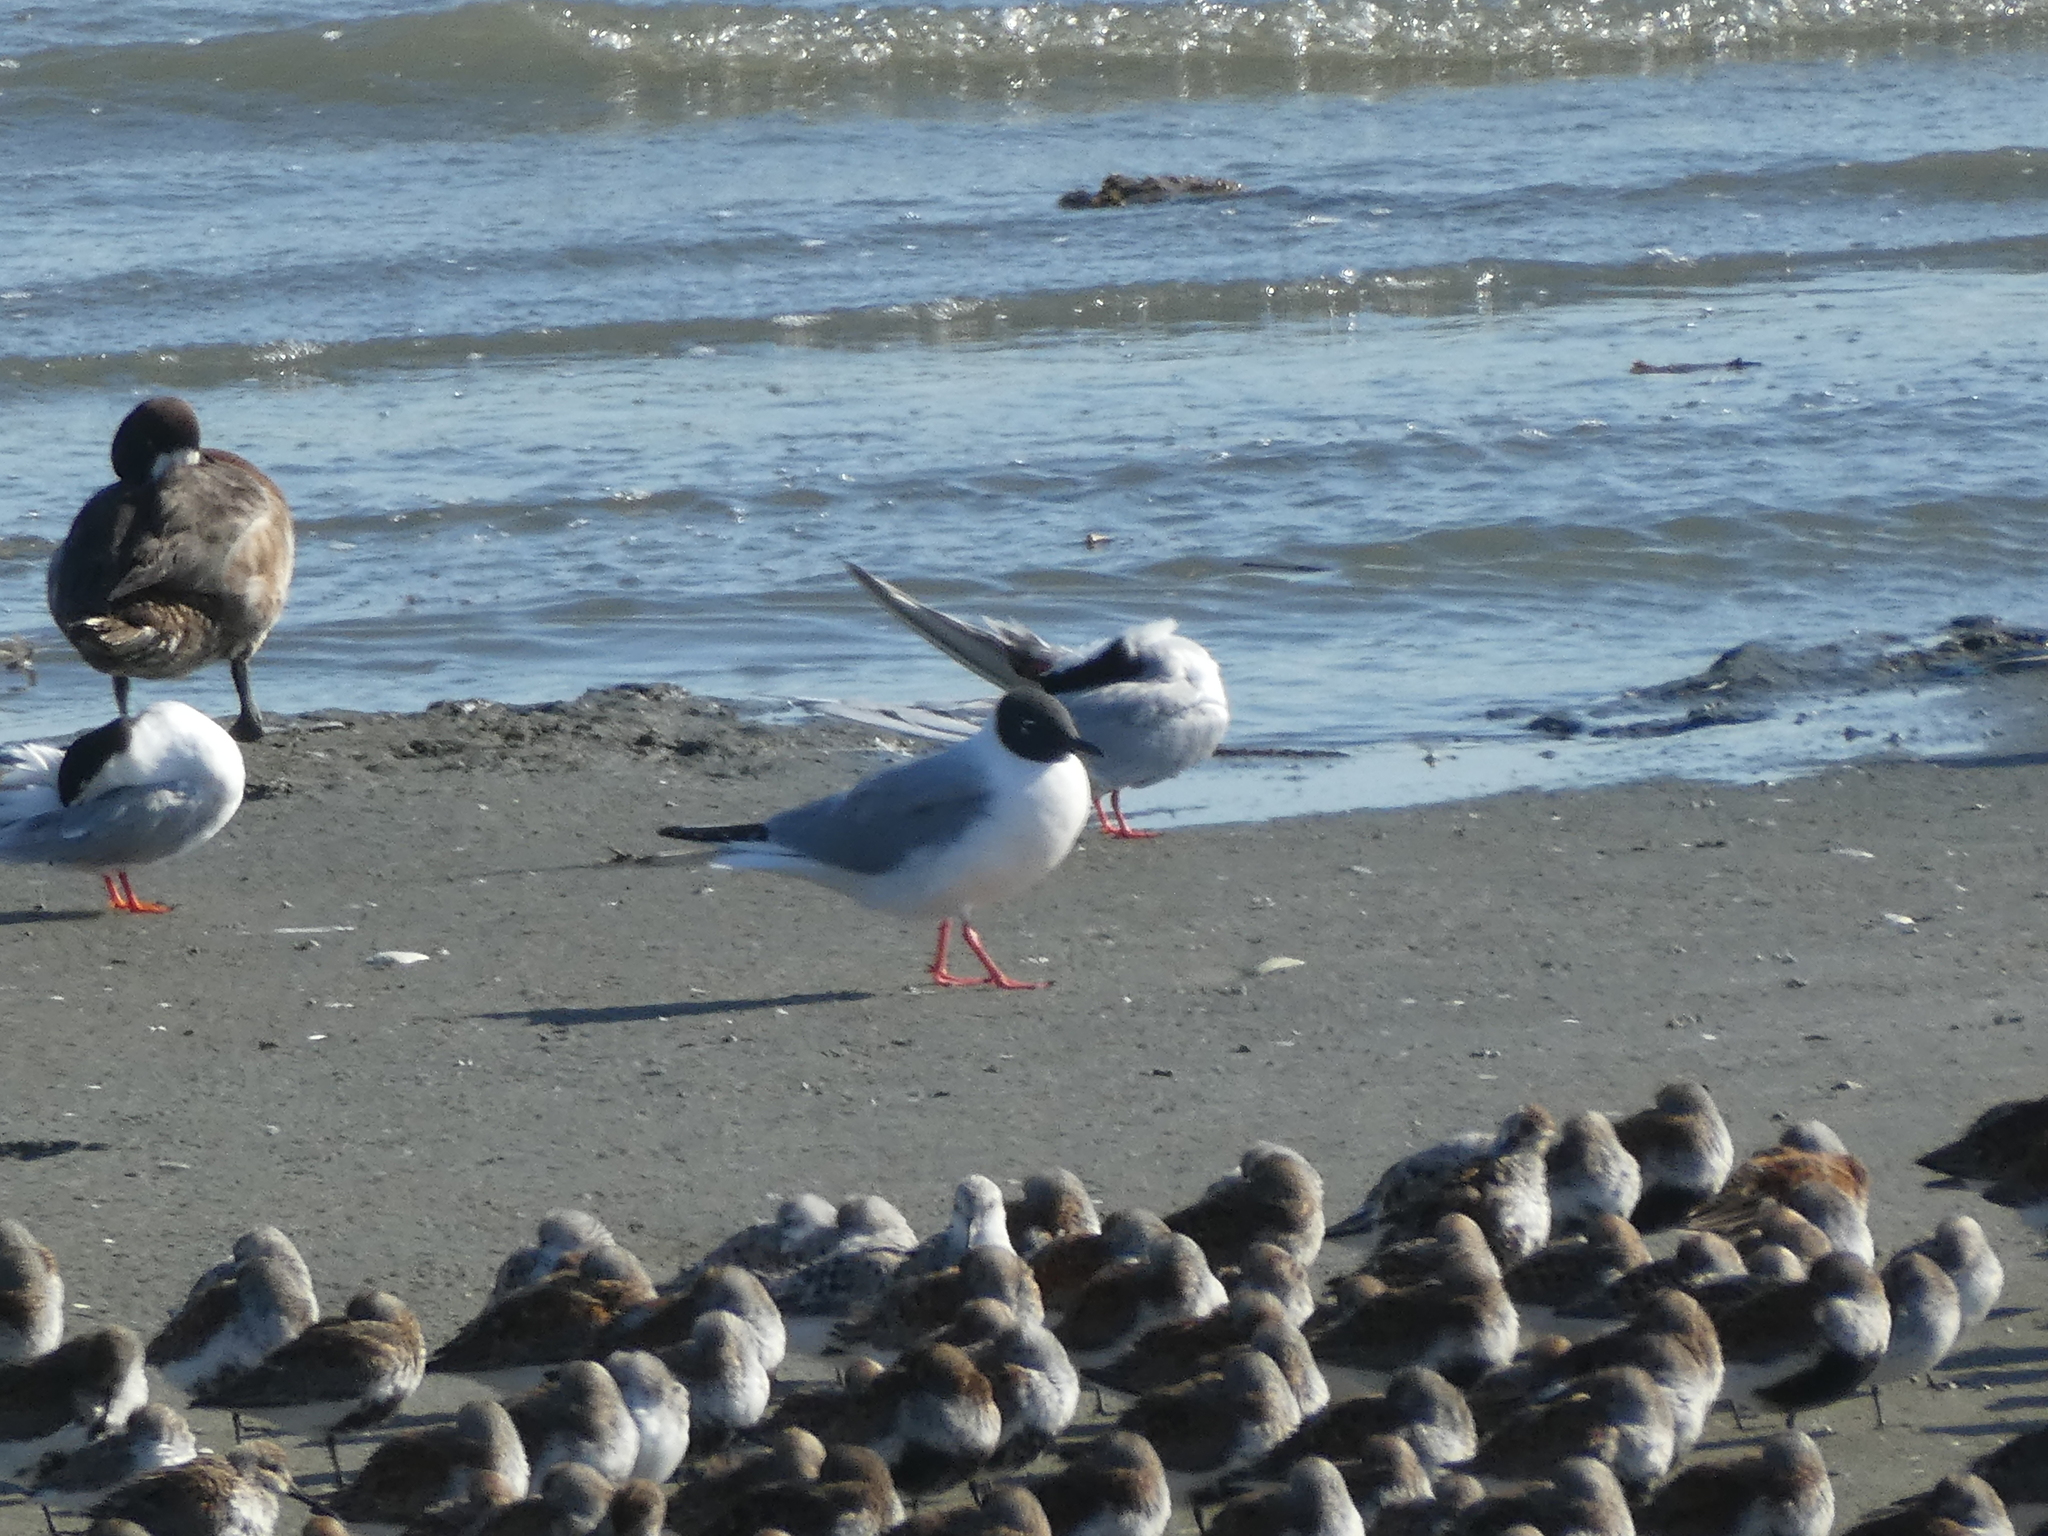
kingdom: Animalia
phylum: Chordata
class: Aves
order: Charadriiformes
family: Laridae
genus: Chroicocephalus
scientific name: Chroicocephalus philadelphia
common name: Bonaparte's gull
